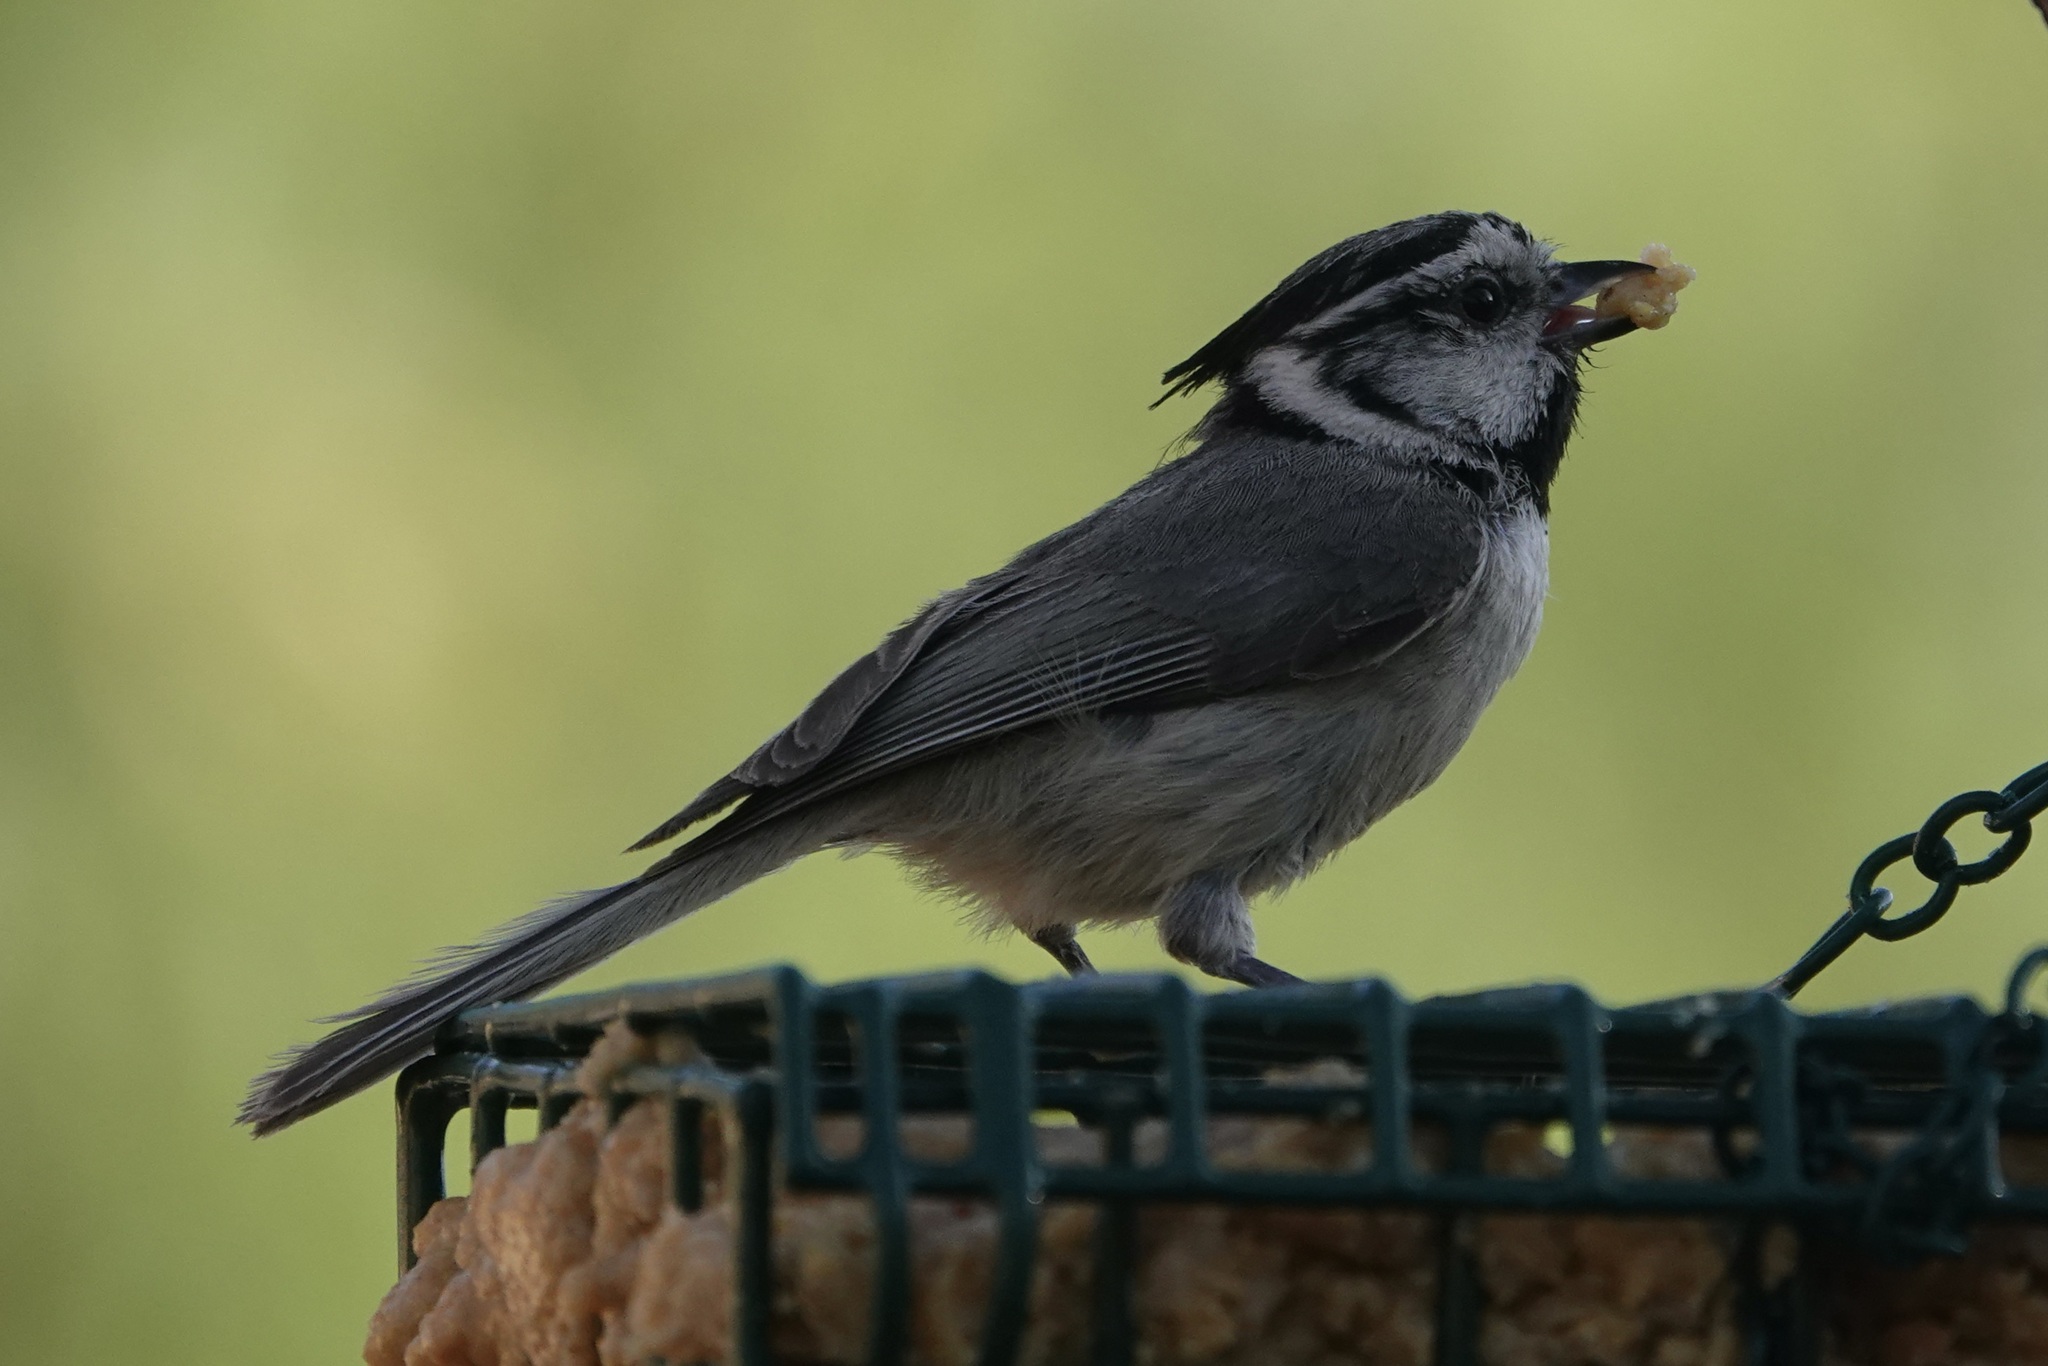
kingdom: Animalia
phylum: Chordata
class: Aves
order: Passeriformes
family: Paridae
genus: Baeolophus
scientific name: Baeolophus wollweberi
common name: Bridled titmouse
